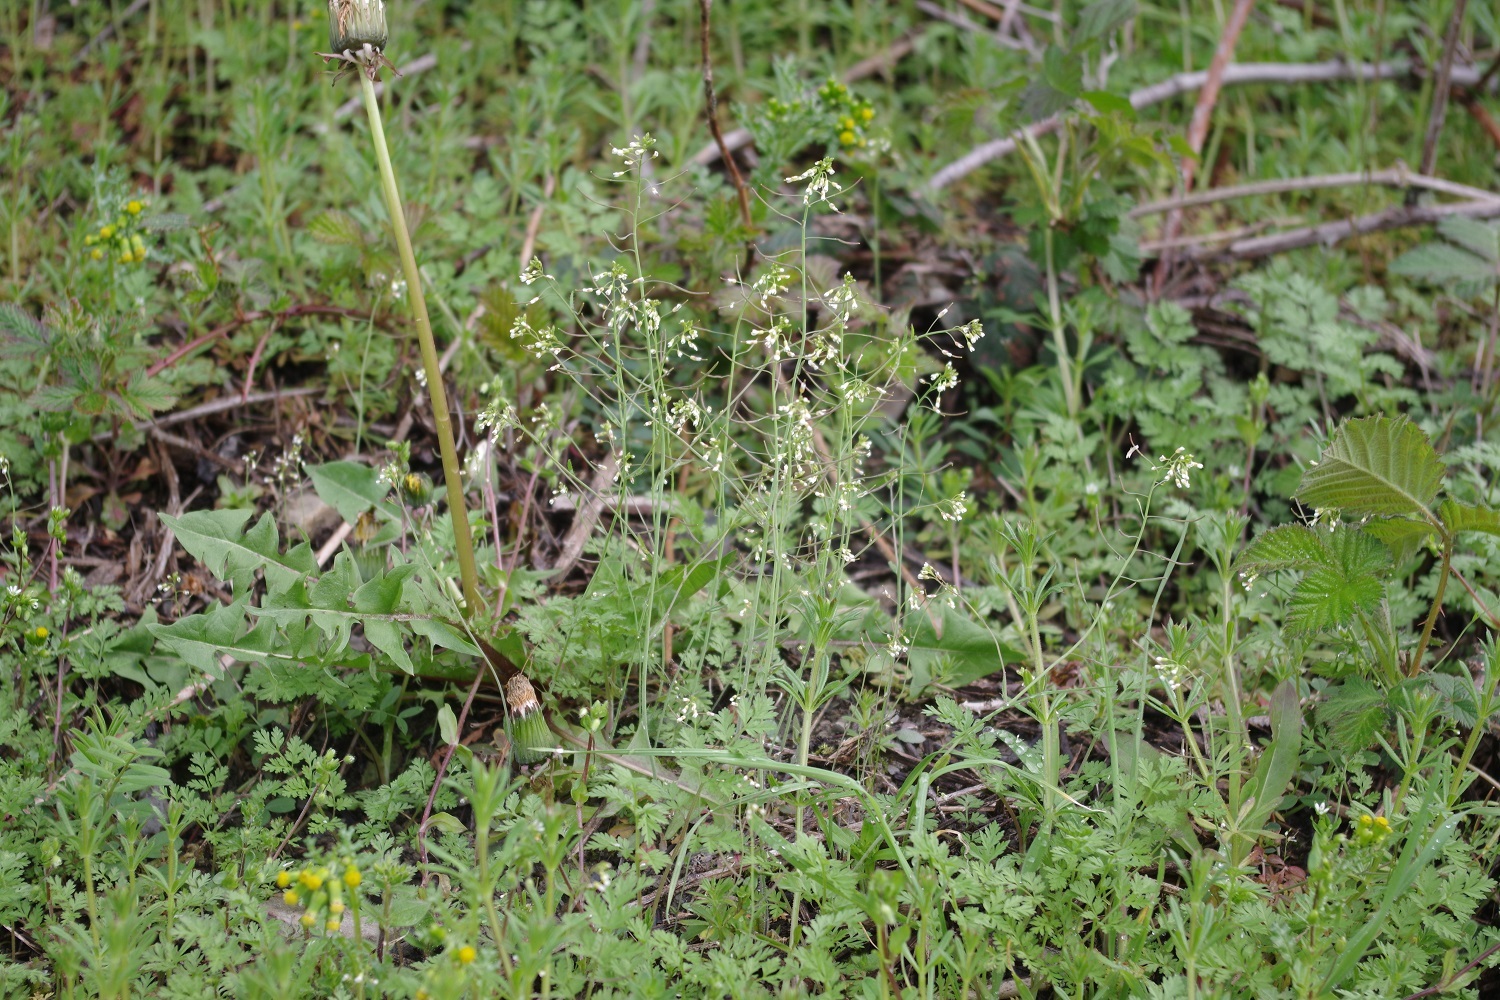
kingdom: Plantae
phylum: Tracheophyta
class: Magnoliopsida
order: Brassicales
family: Brassicaceae
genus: Arabidopsis
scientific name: Arabidopsis thaliana
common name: Thale cress
